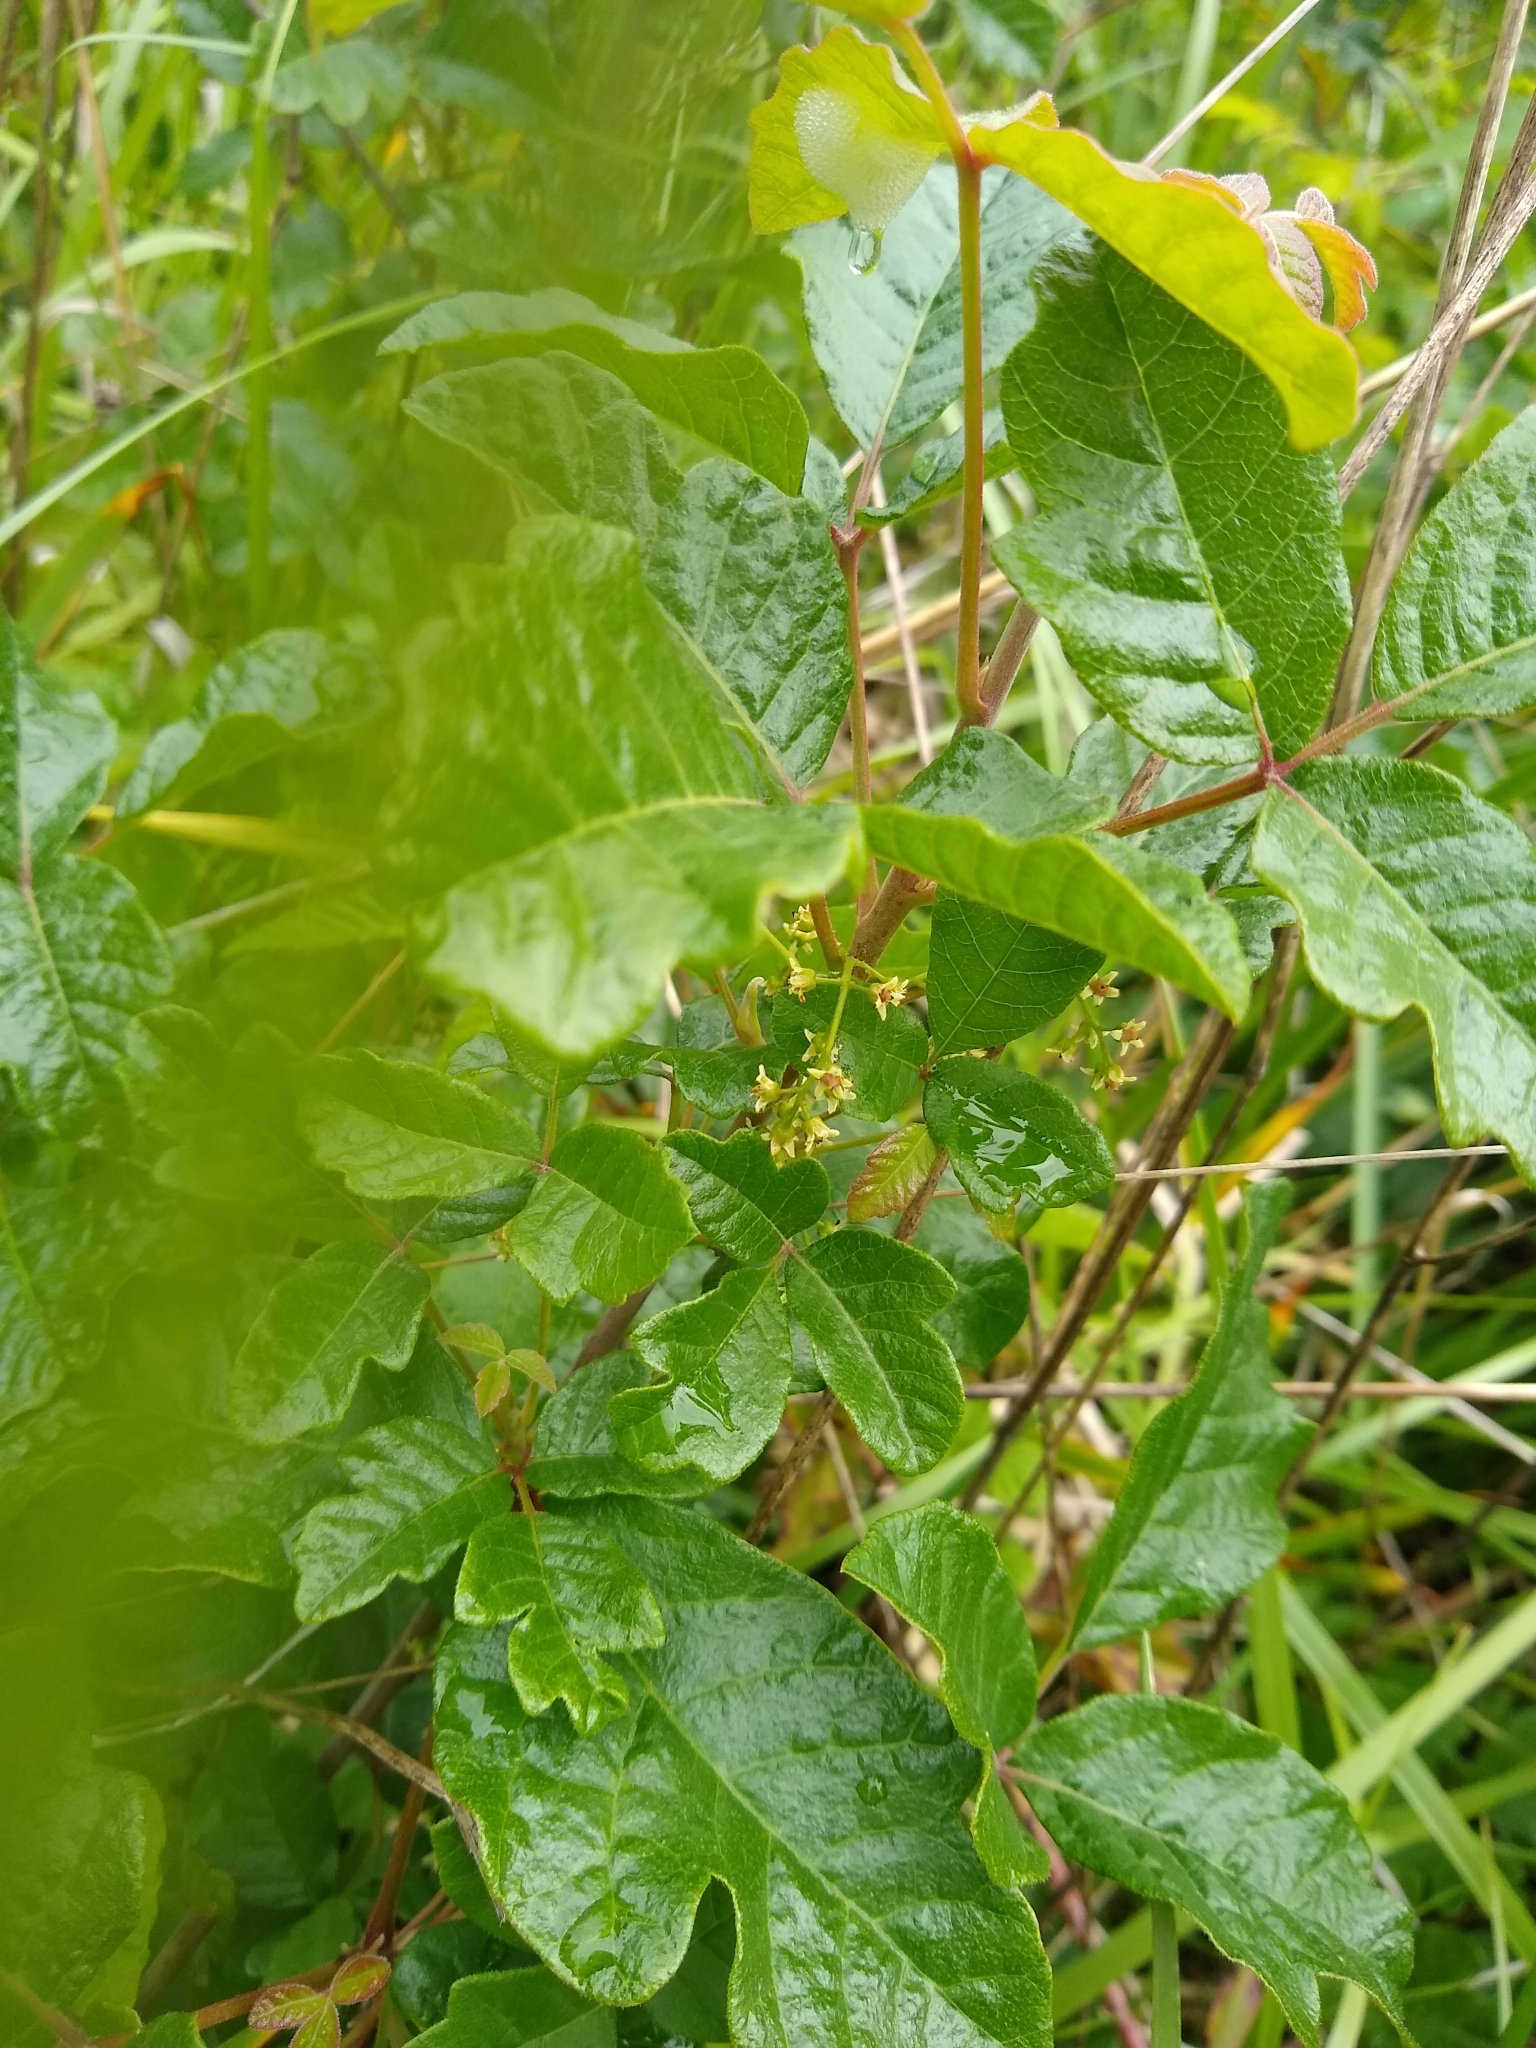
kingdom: Plantae
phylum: Tracheophyta
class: Magnoliopsida
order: Sapindales
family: Anacardiaceae
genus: Toxicodendron
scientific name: Toxicodendron diversilobum
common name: Pacific poison-oak
